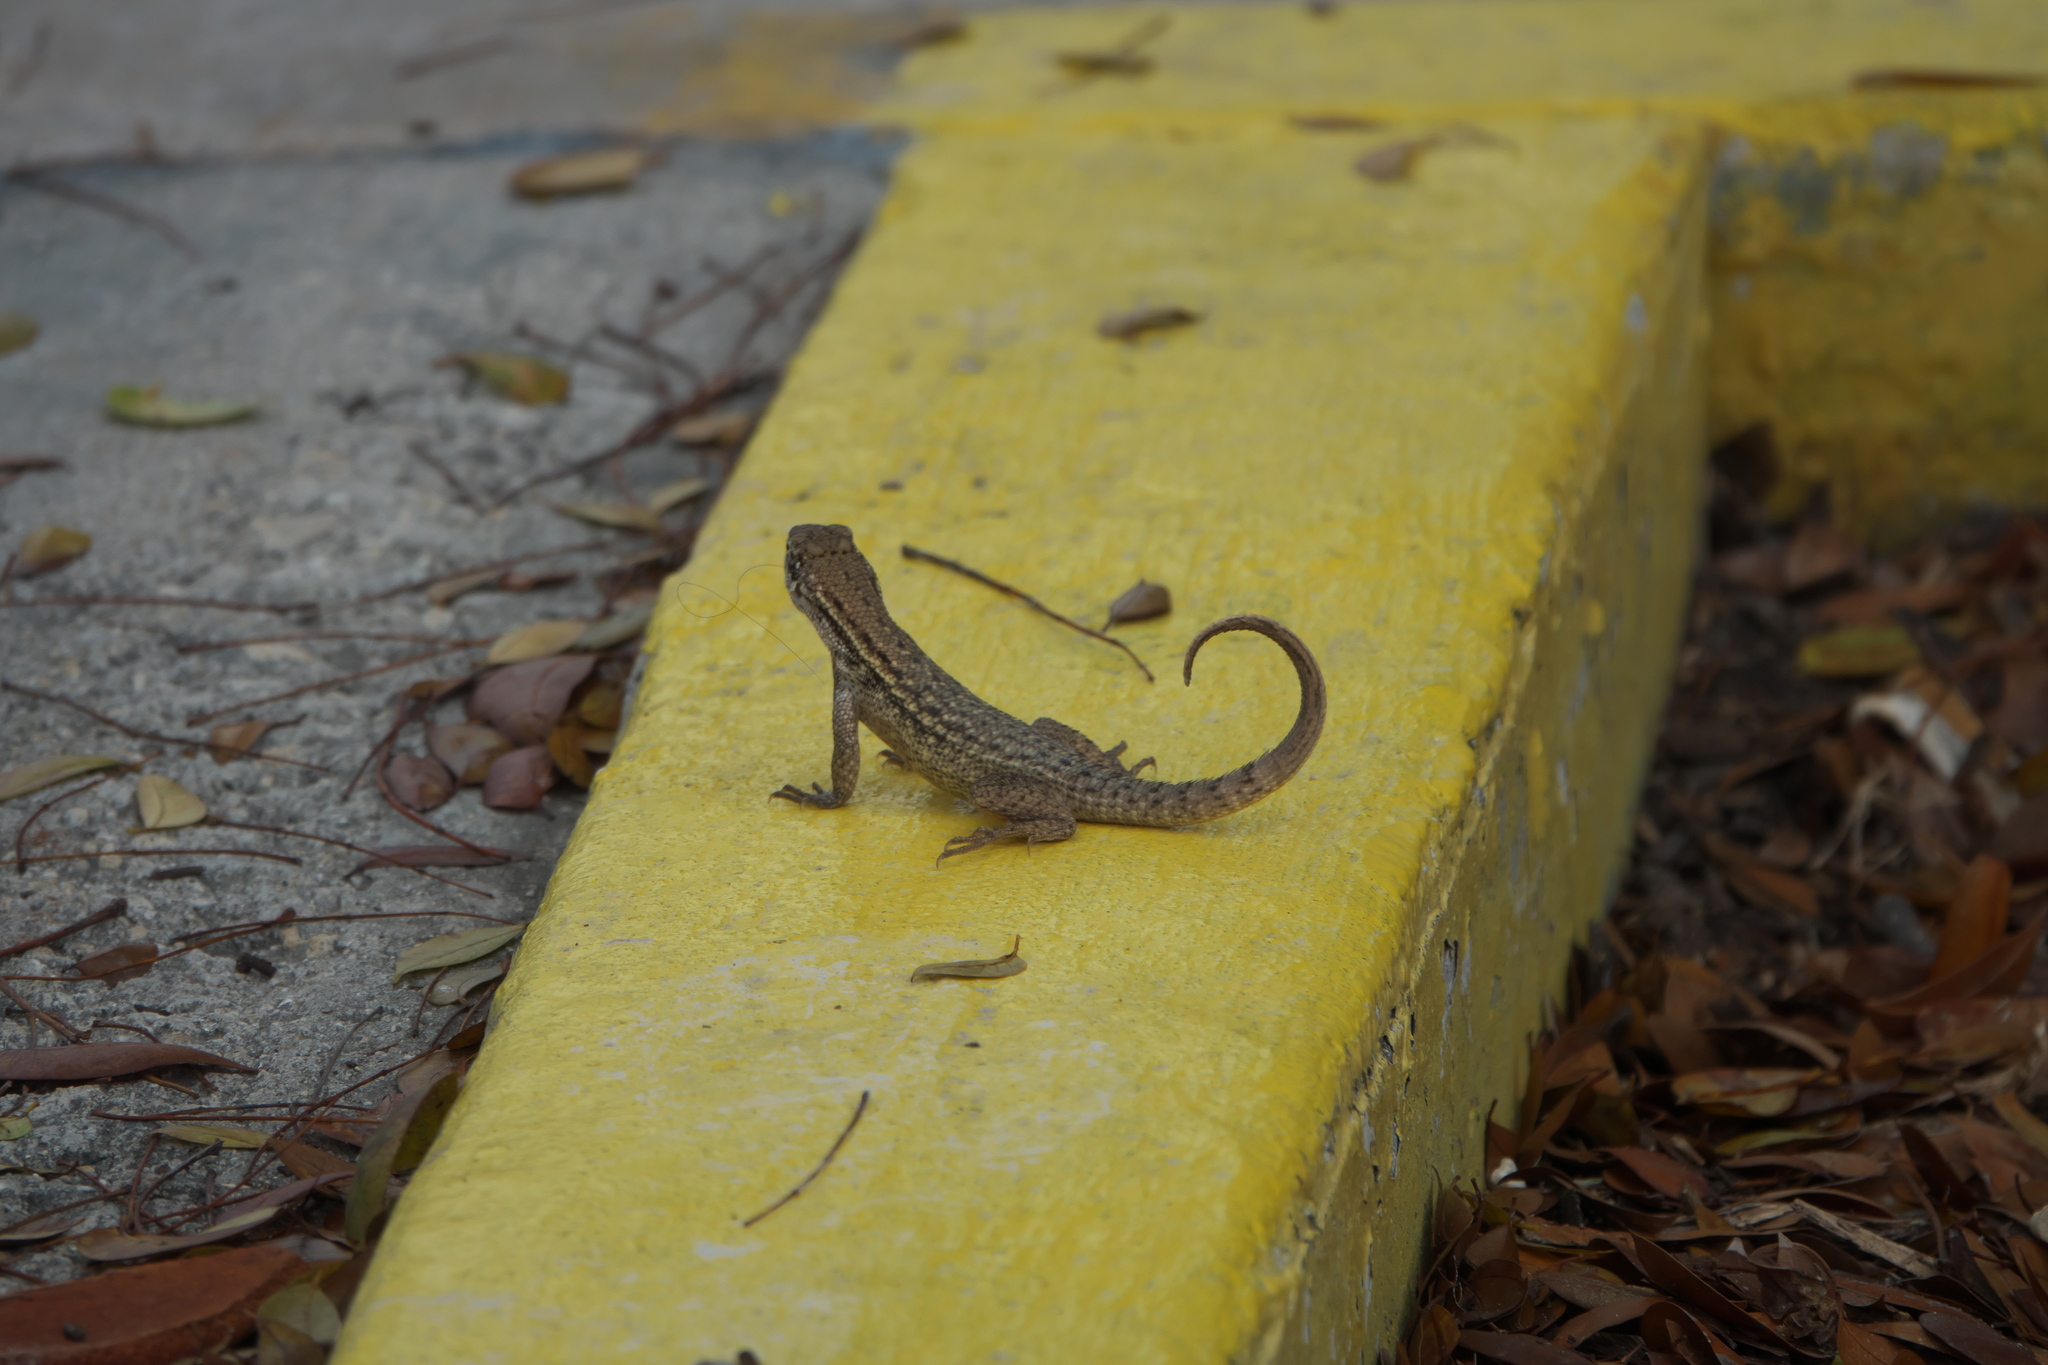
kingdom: Animalia
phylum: Chordata
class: Squamata
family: Leiocephalidae
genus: Leiocephalus
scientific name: Leiocephalus carinatus
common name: Northern curly-tailed lizard
